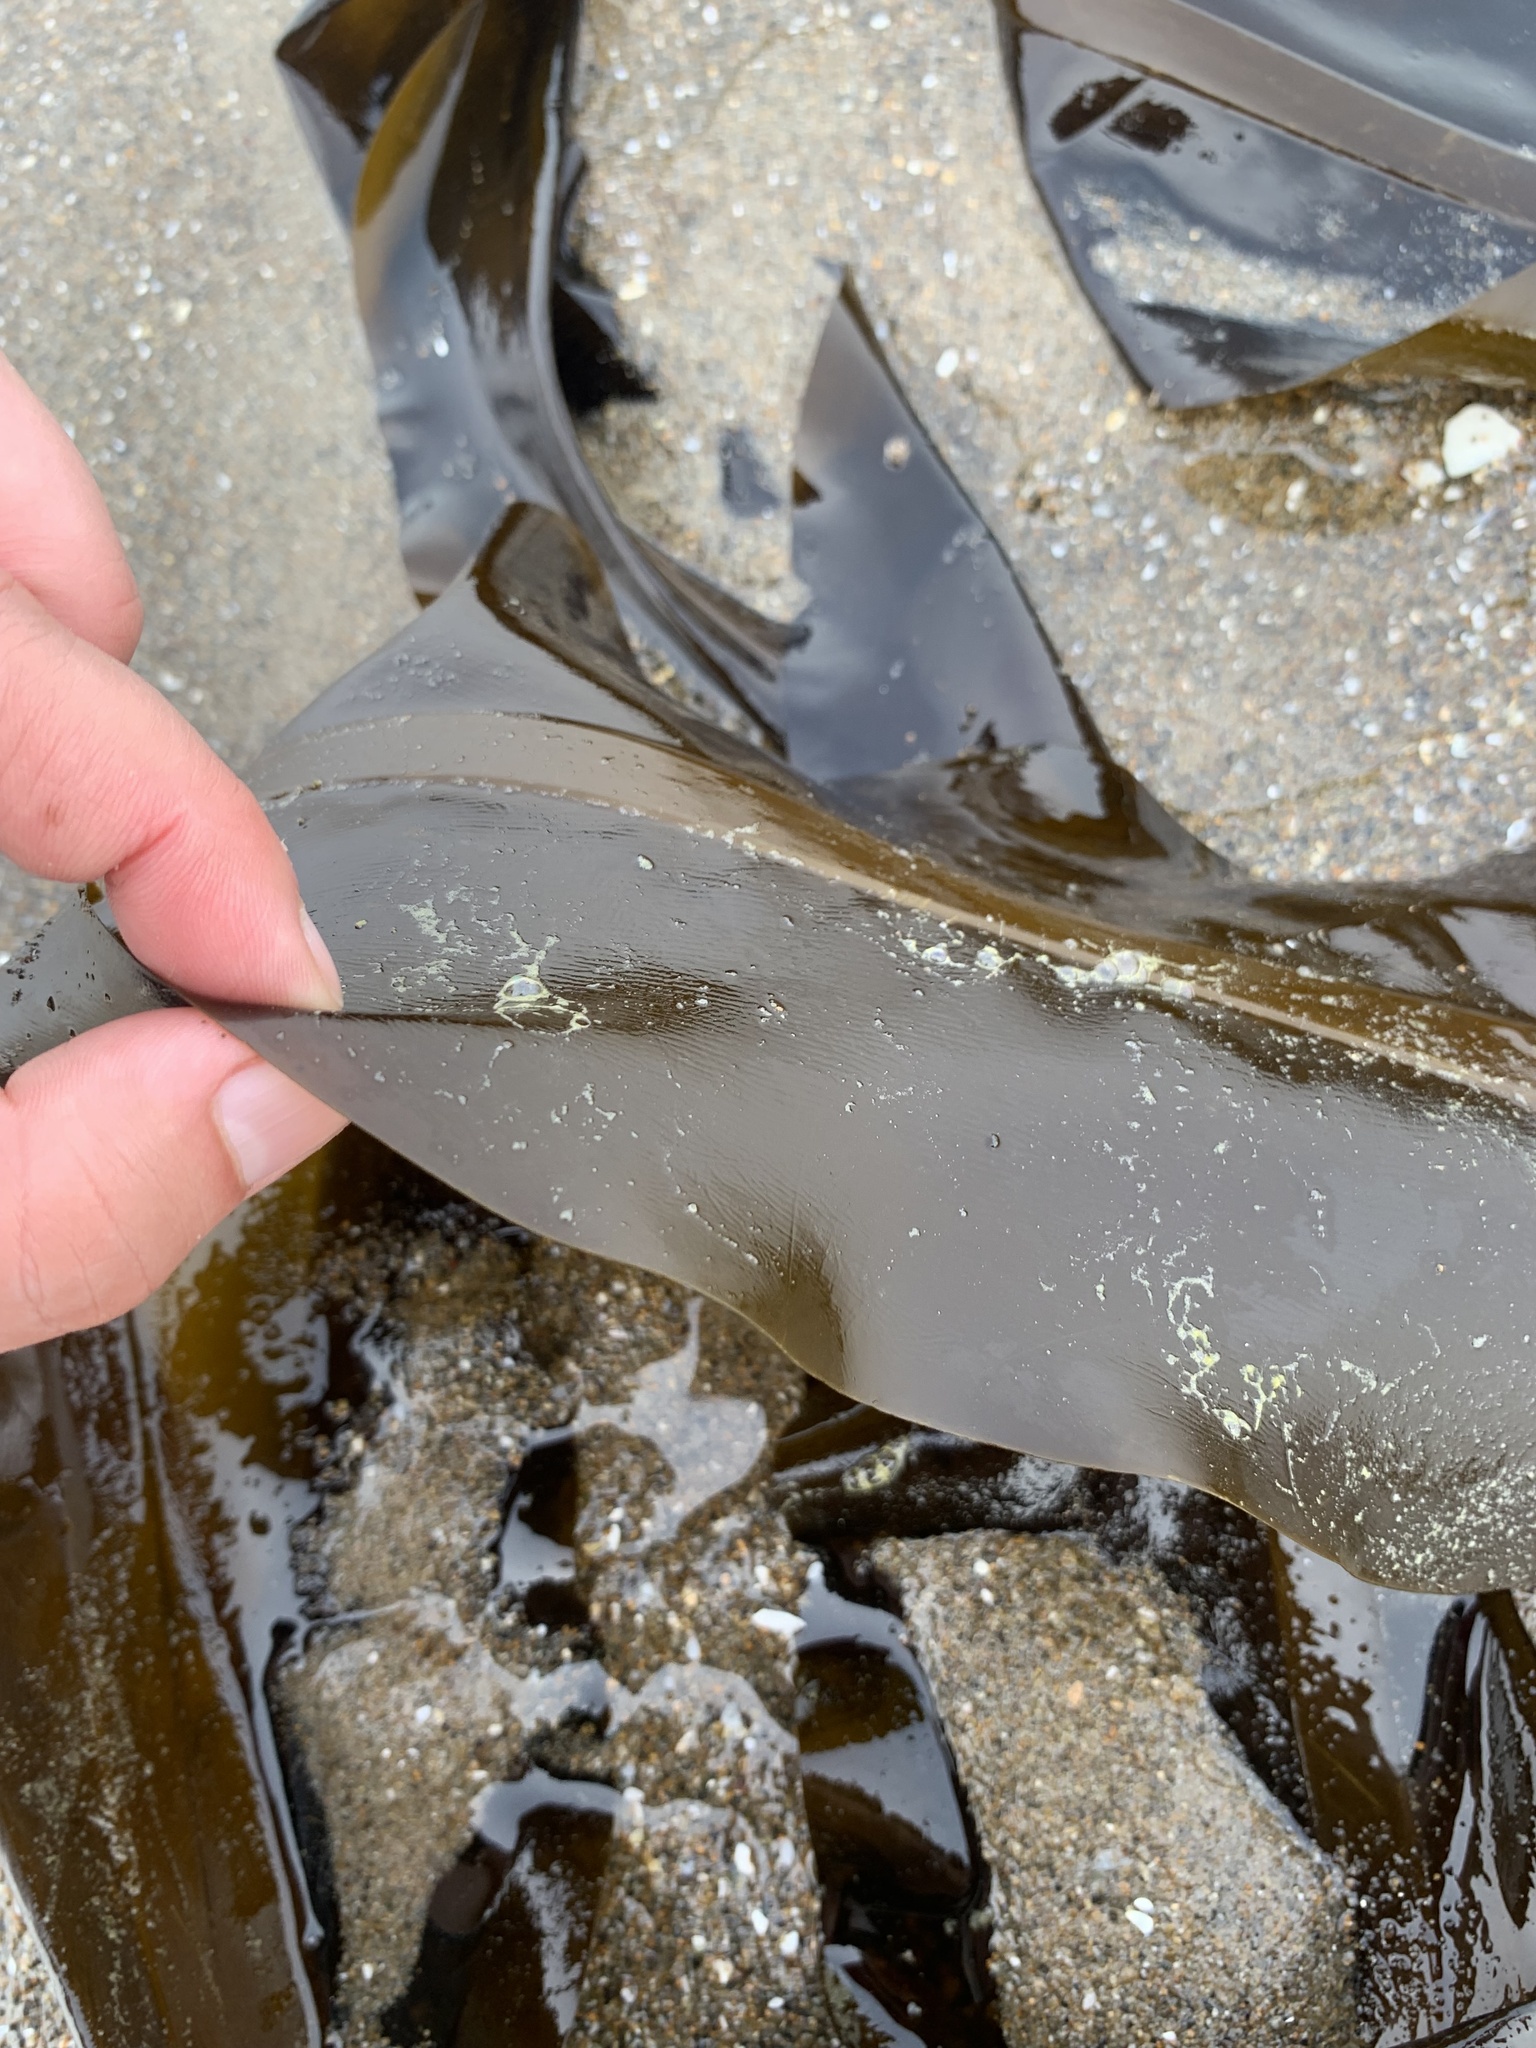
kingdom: Chromista
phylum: Ochrophyta
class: Phaeophyceae
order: Laminariales
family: Alariaceae
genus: Alaria
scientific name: Alaria marginata
